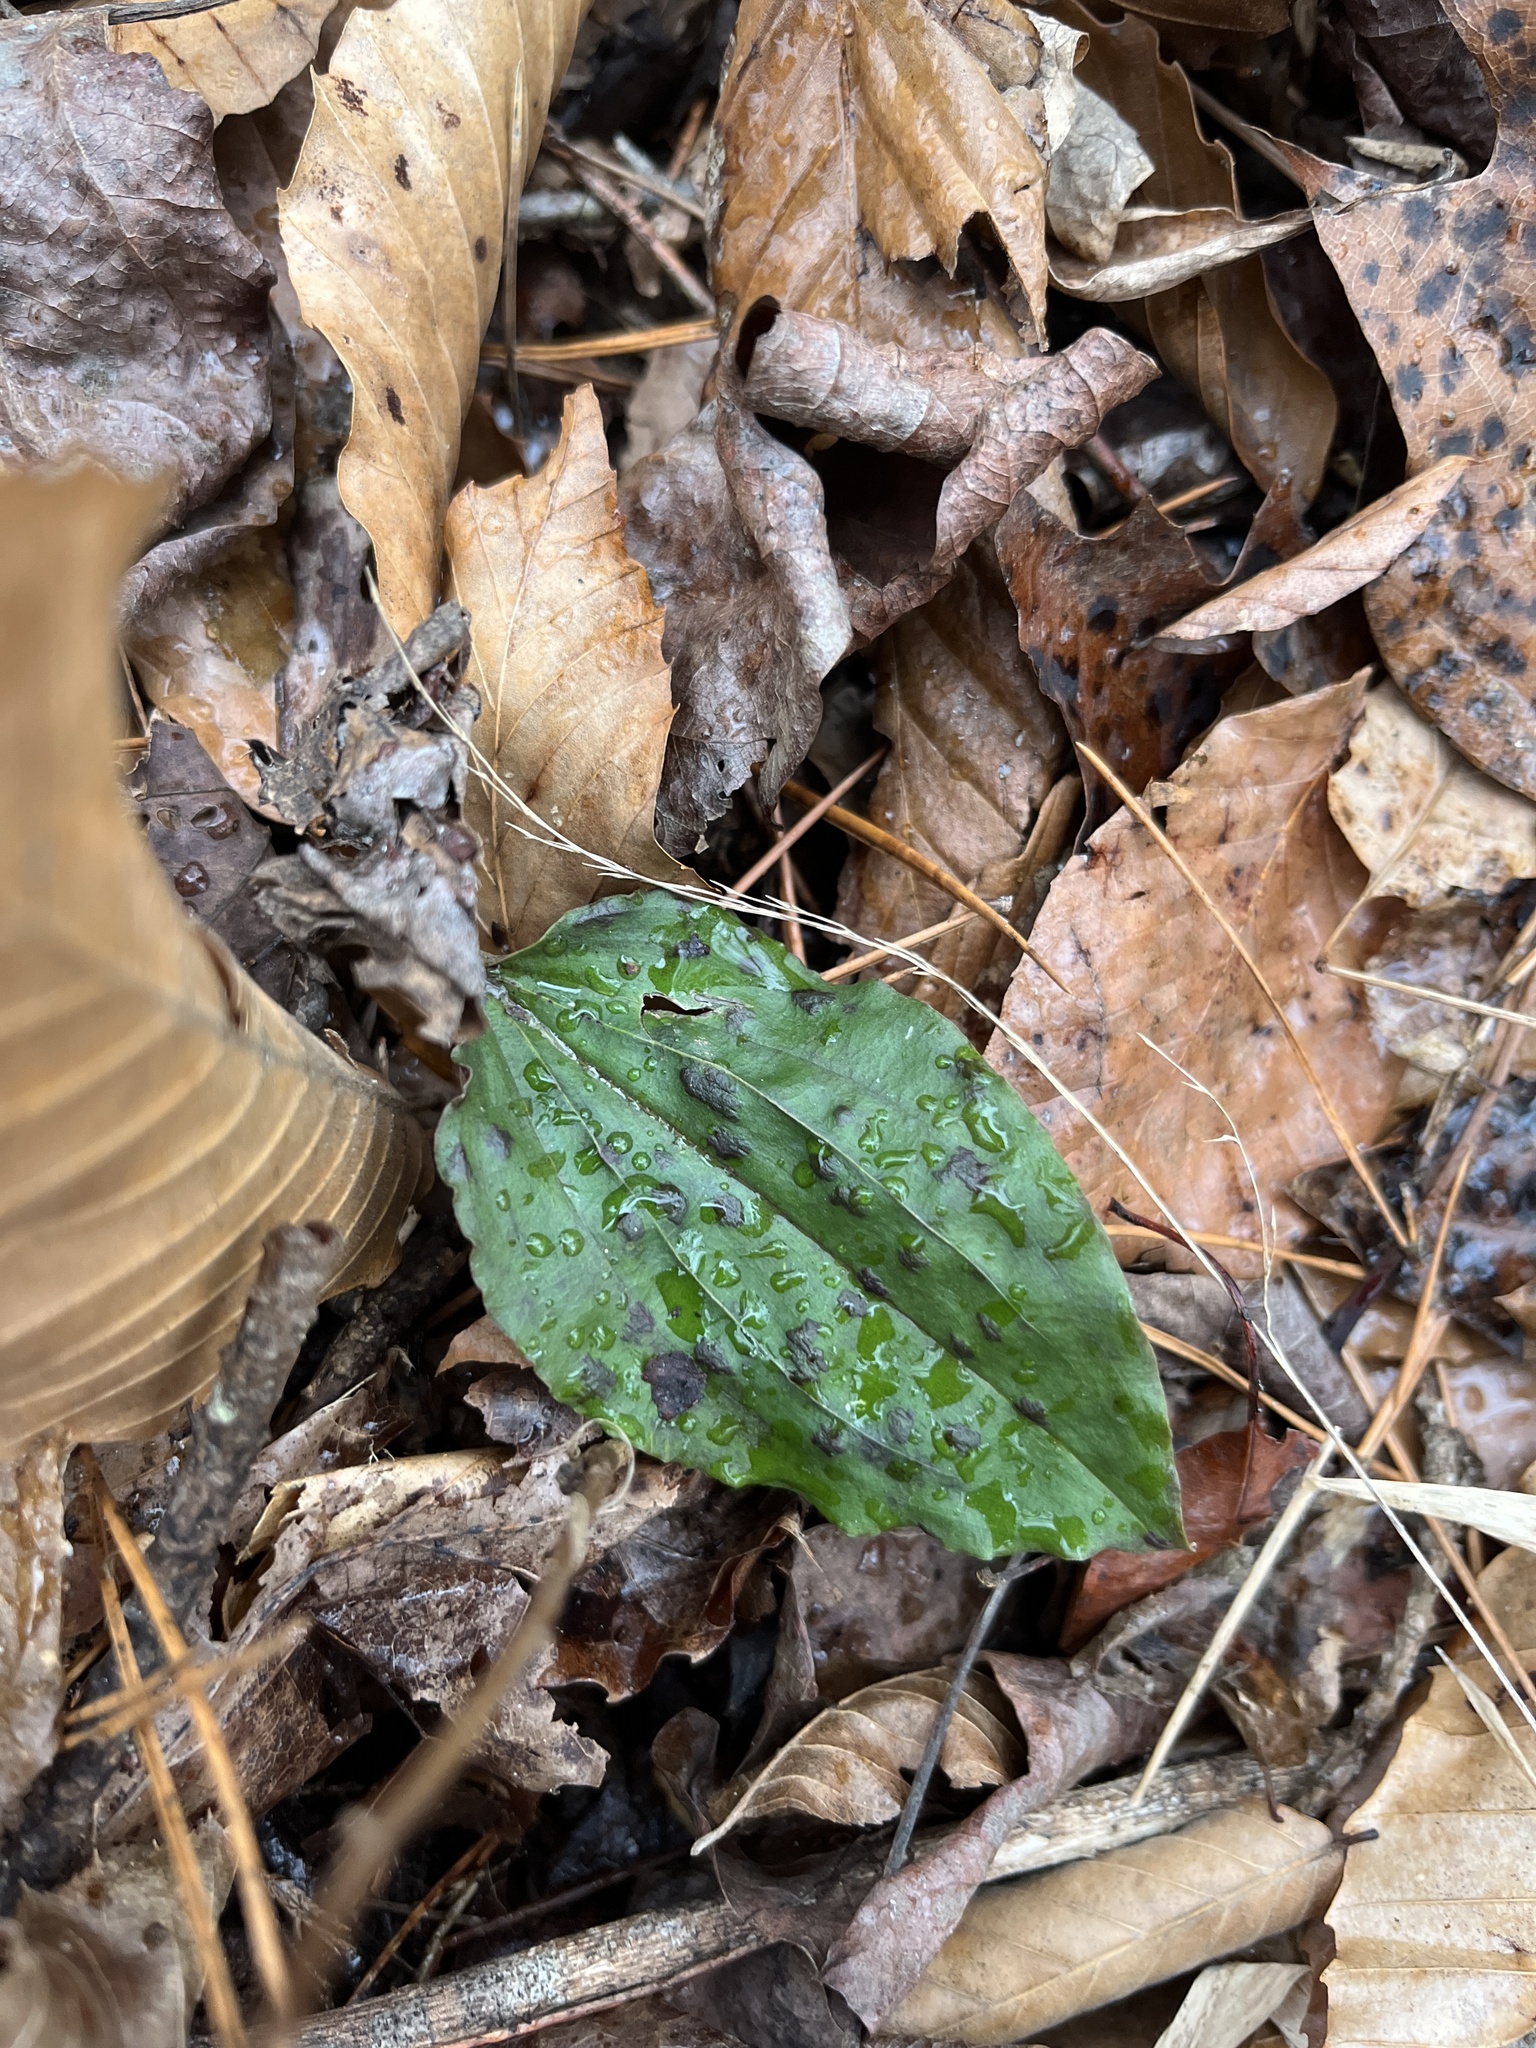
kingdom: Plantae
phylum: Tracheophyta
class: Liliopsida
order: Asparagales
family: Orchidaceae
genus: Tipularia
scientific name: Tipularia discolor
